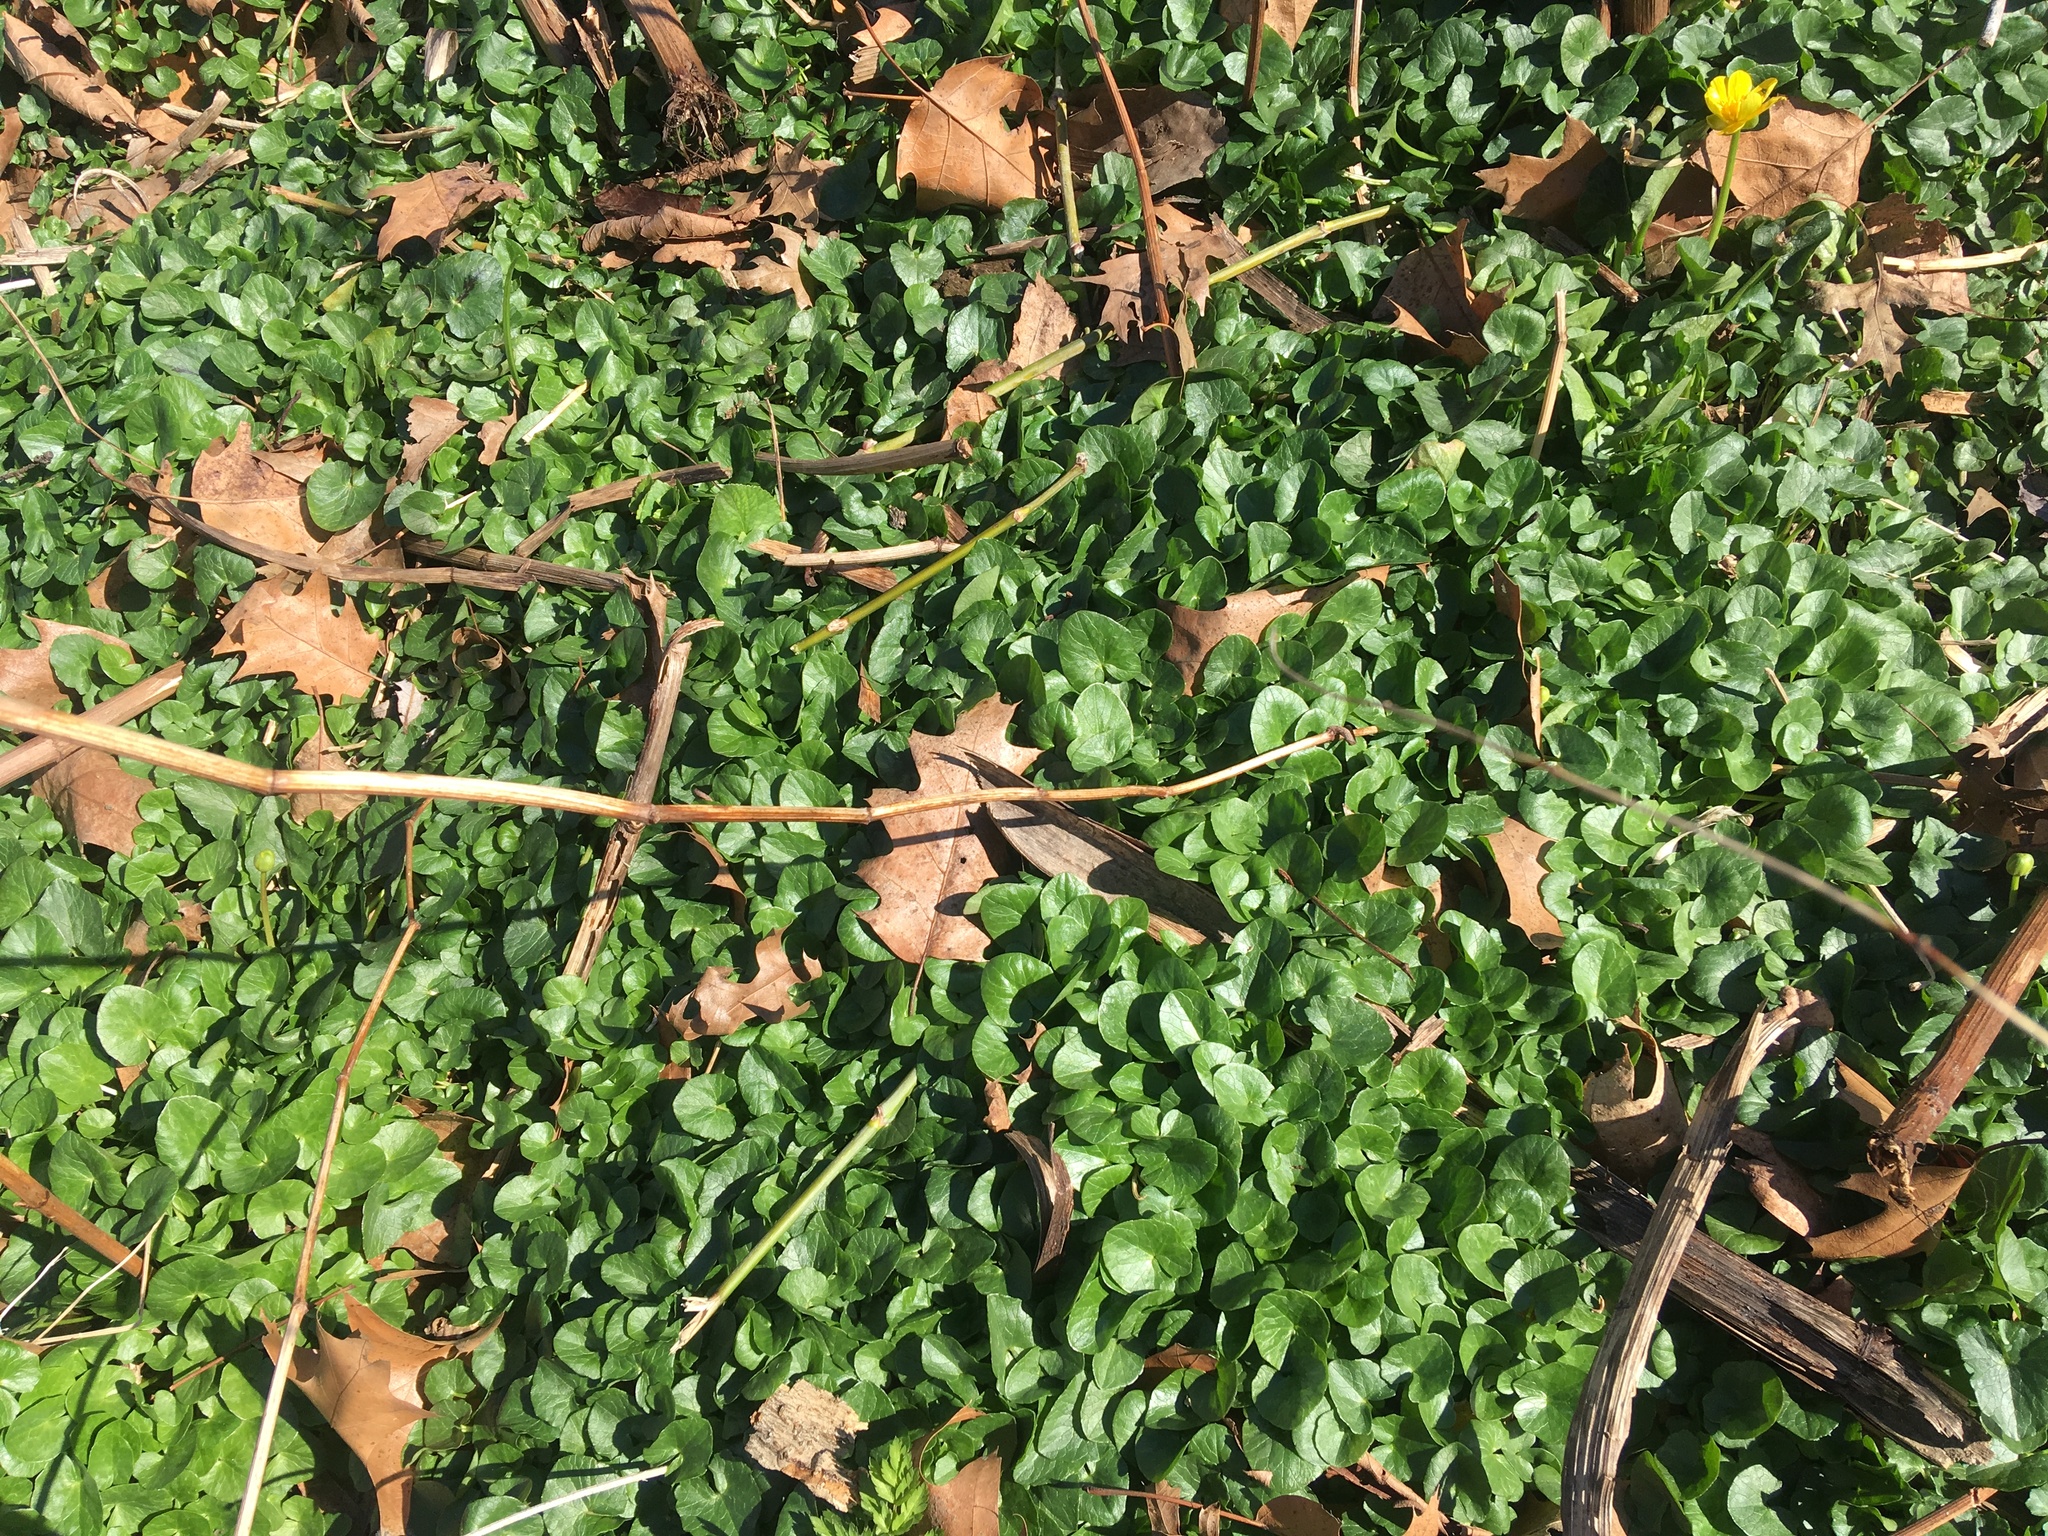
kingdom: Plantae
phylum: Tracheophyta
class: Magnoliopsida
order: Ranunculales
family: Ranunculaceae
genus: Ficaria
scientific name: Ficaria verna
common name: Lesser celandine
